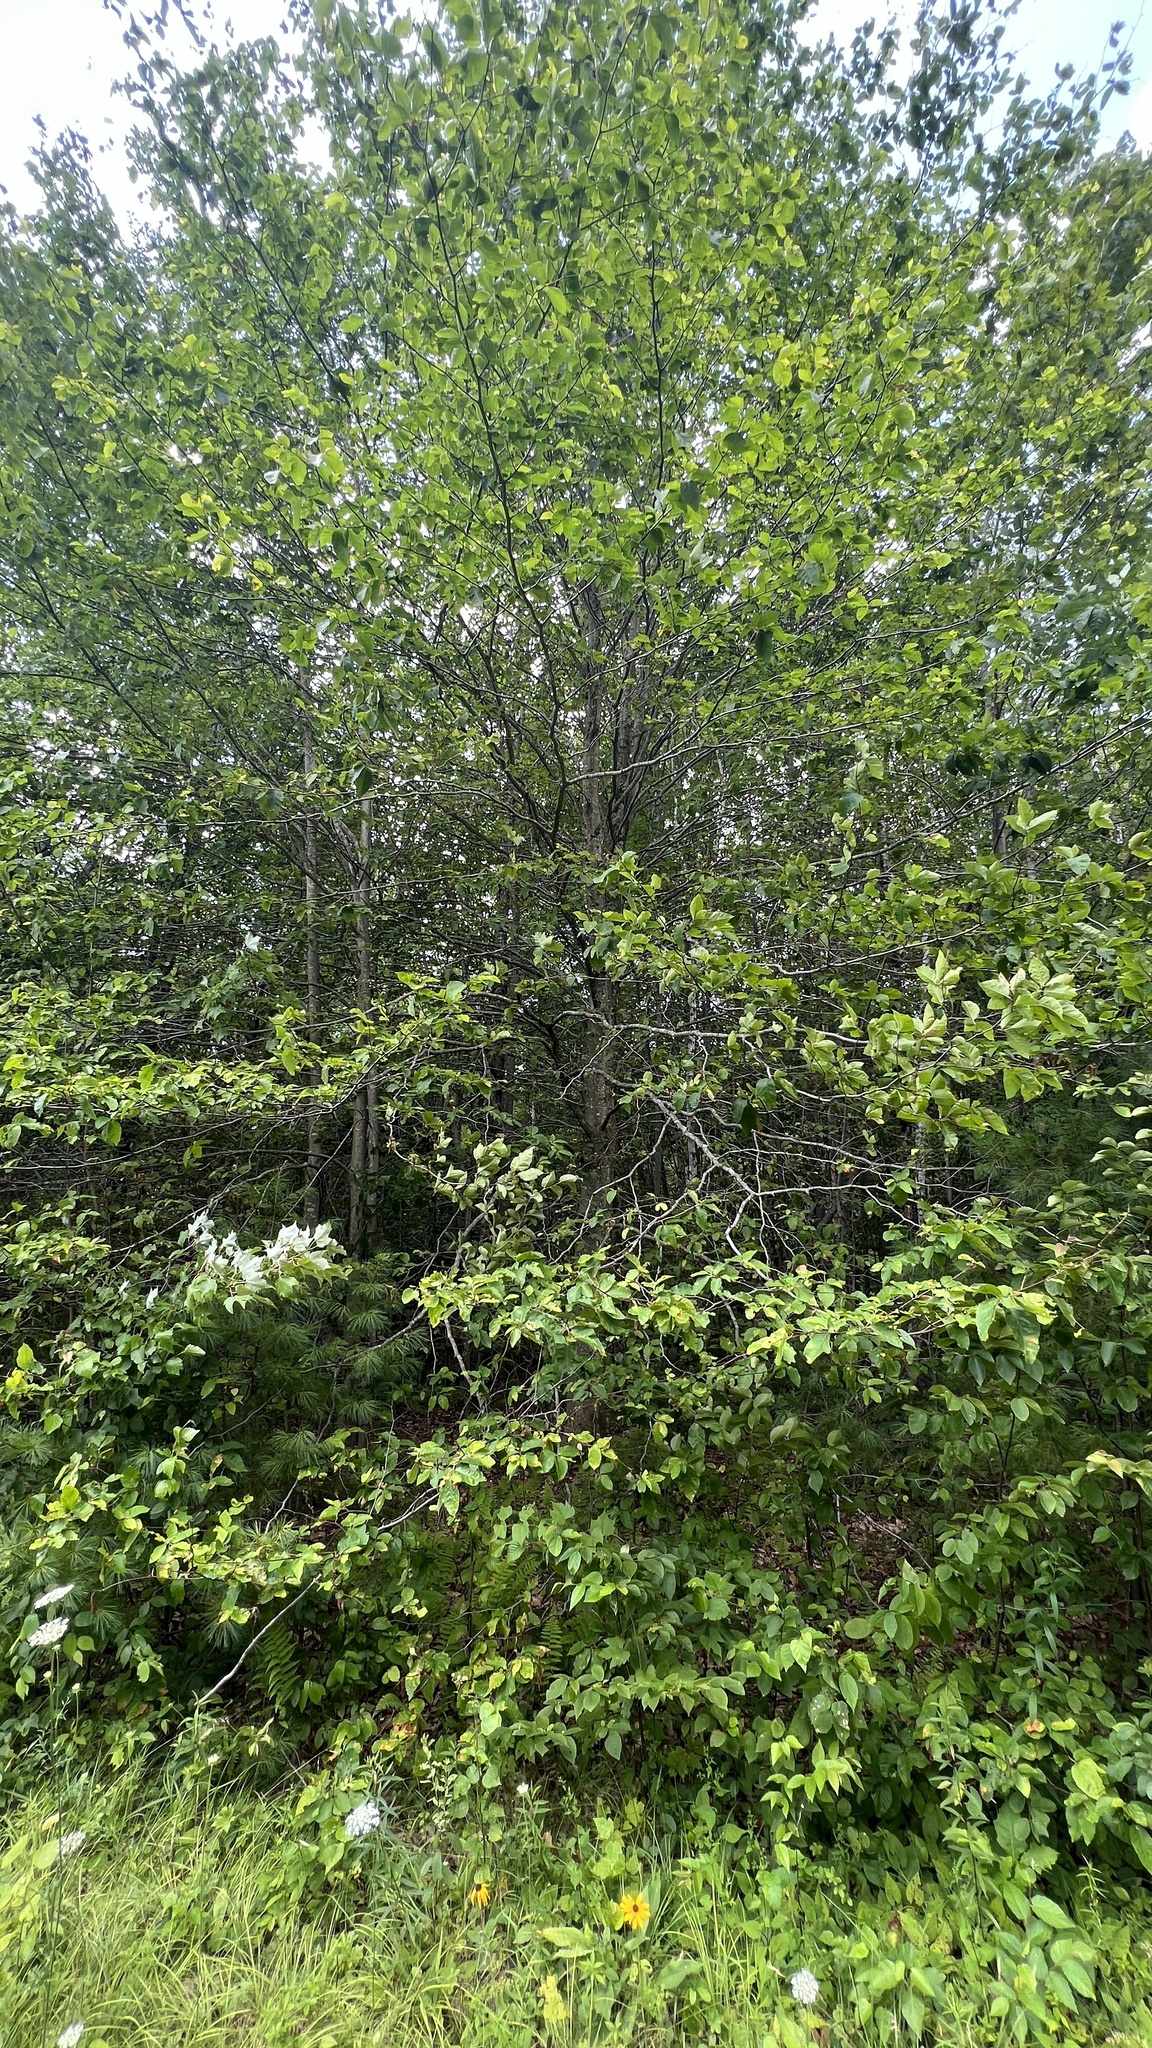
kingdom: Plantae
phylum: Tracheophyta
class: Magnoliopsida
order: Fagales
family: Fagaceae
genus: Fagus
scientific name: Fagus grandifolia
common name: American beech
